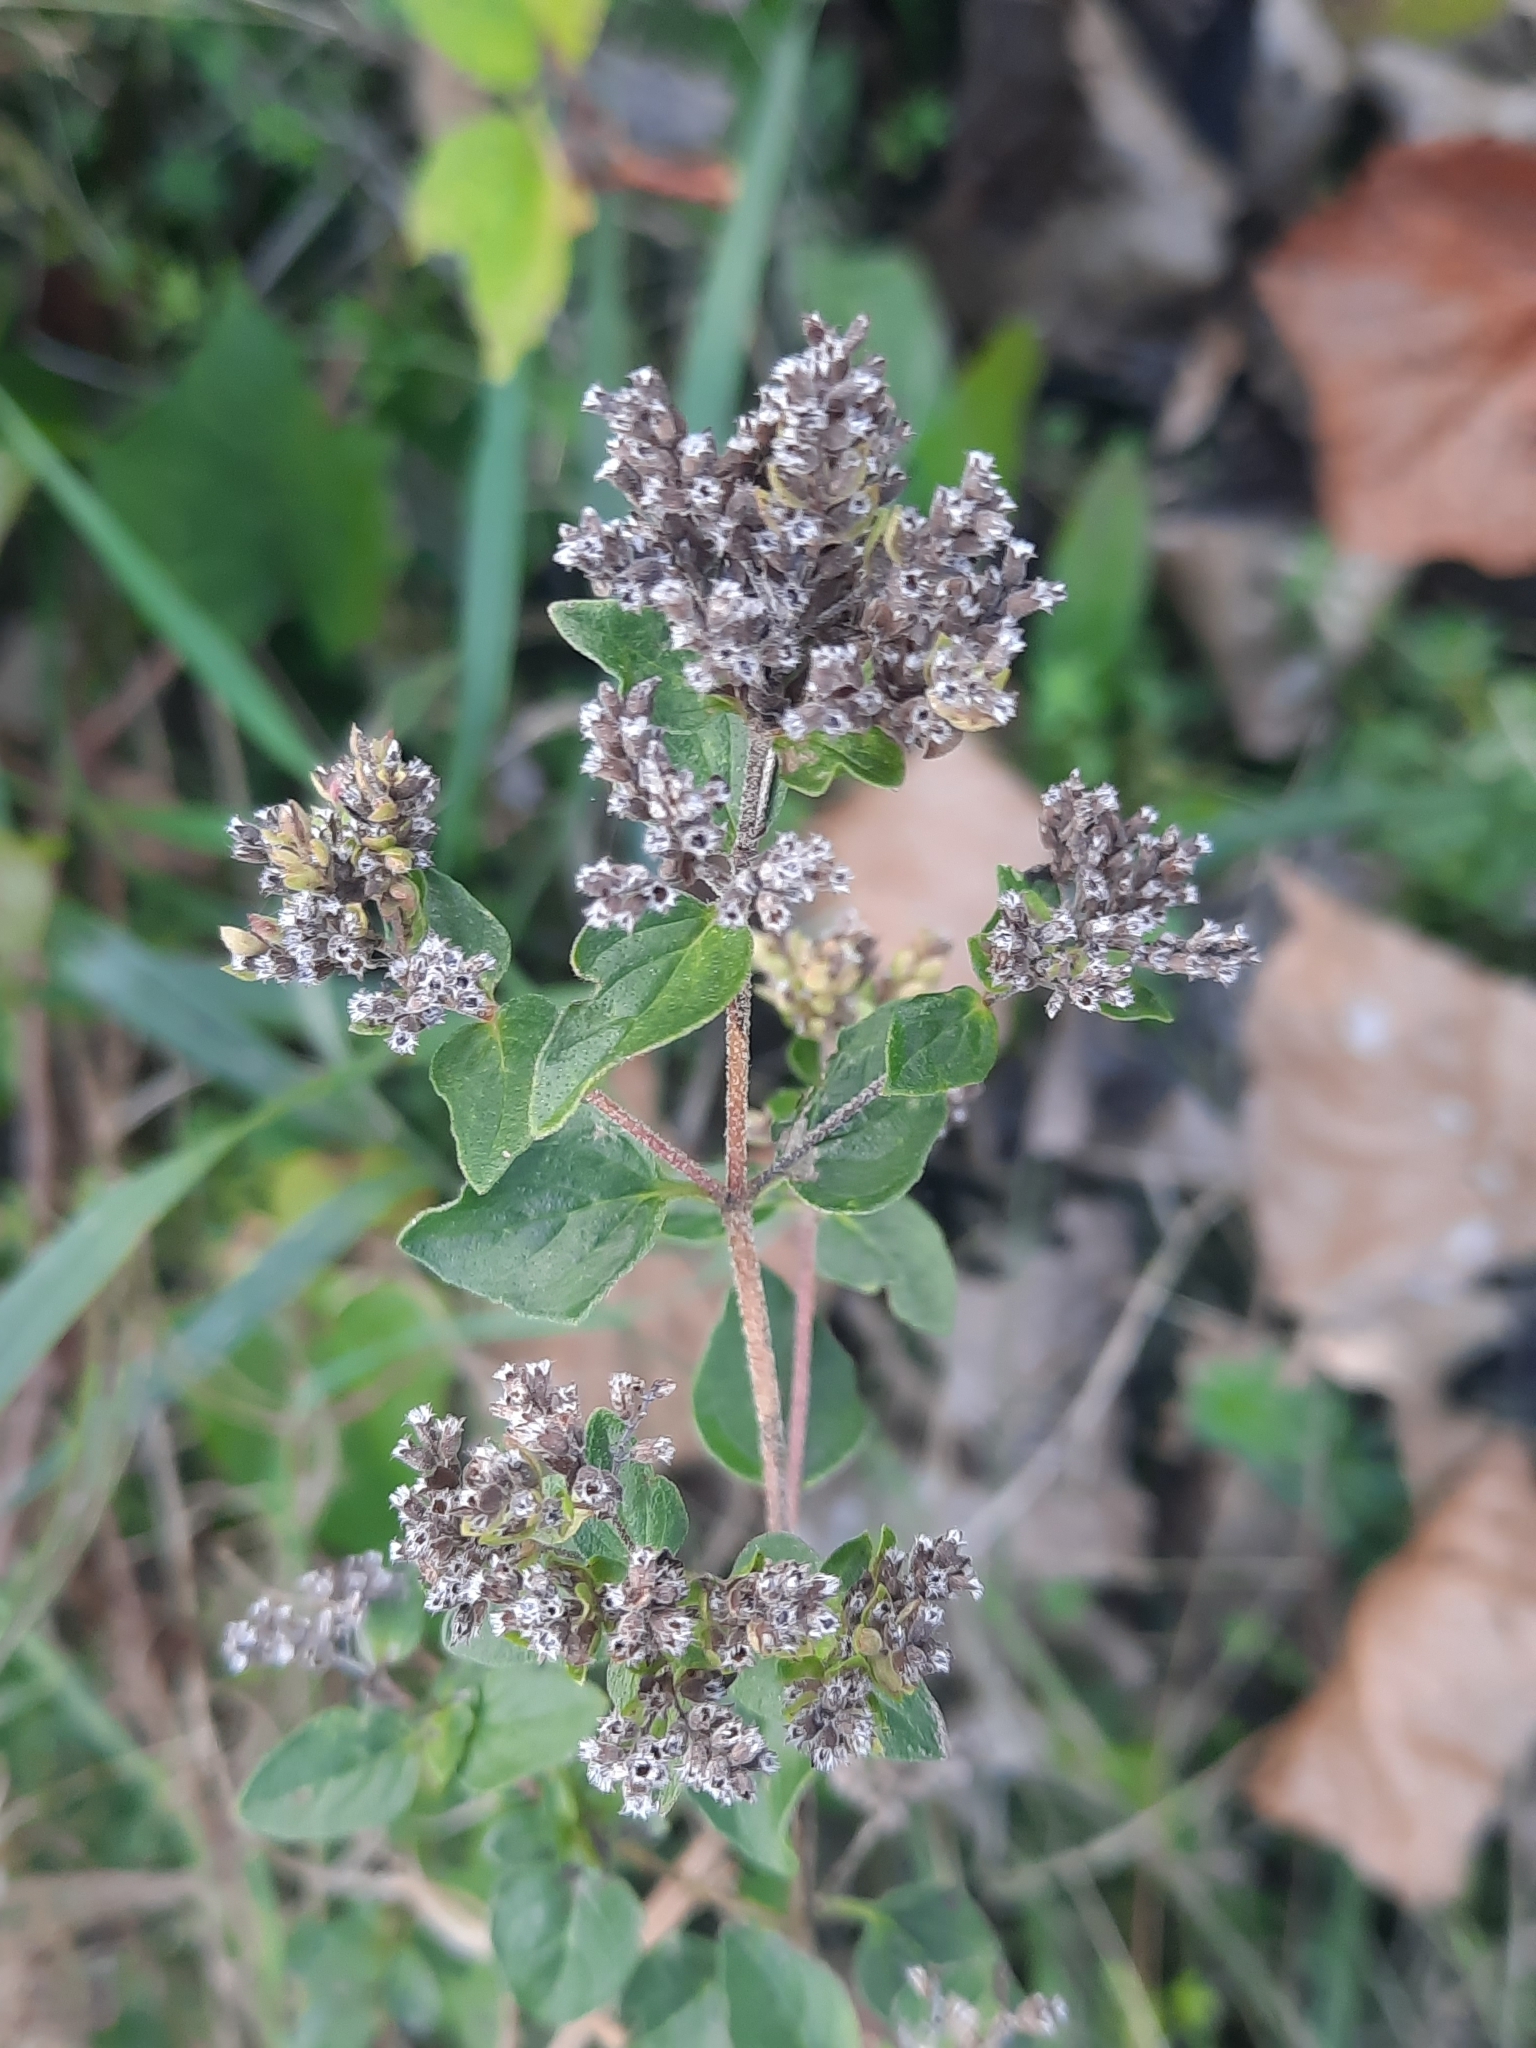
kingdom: Plantae
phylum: Tracheophyta
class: Magnoliopsida
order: Lamiales
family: Lamiaceae
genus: Origanum
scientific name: Origanum vulgare
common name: Wild marjoram
